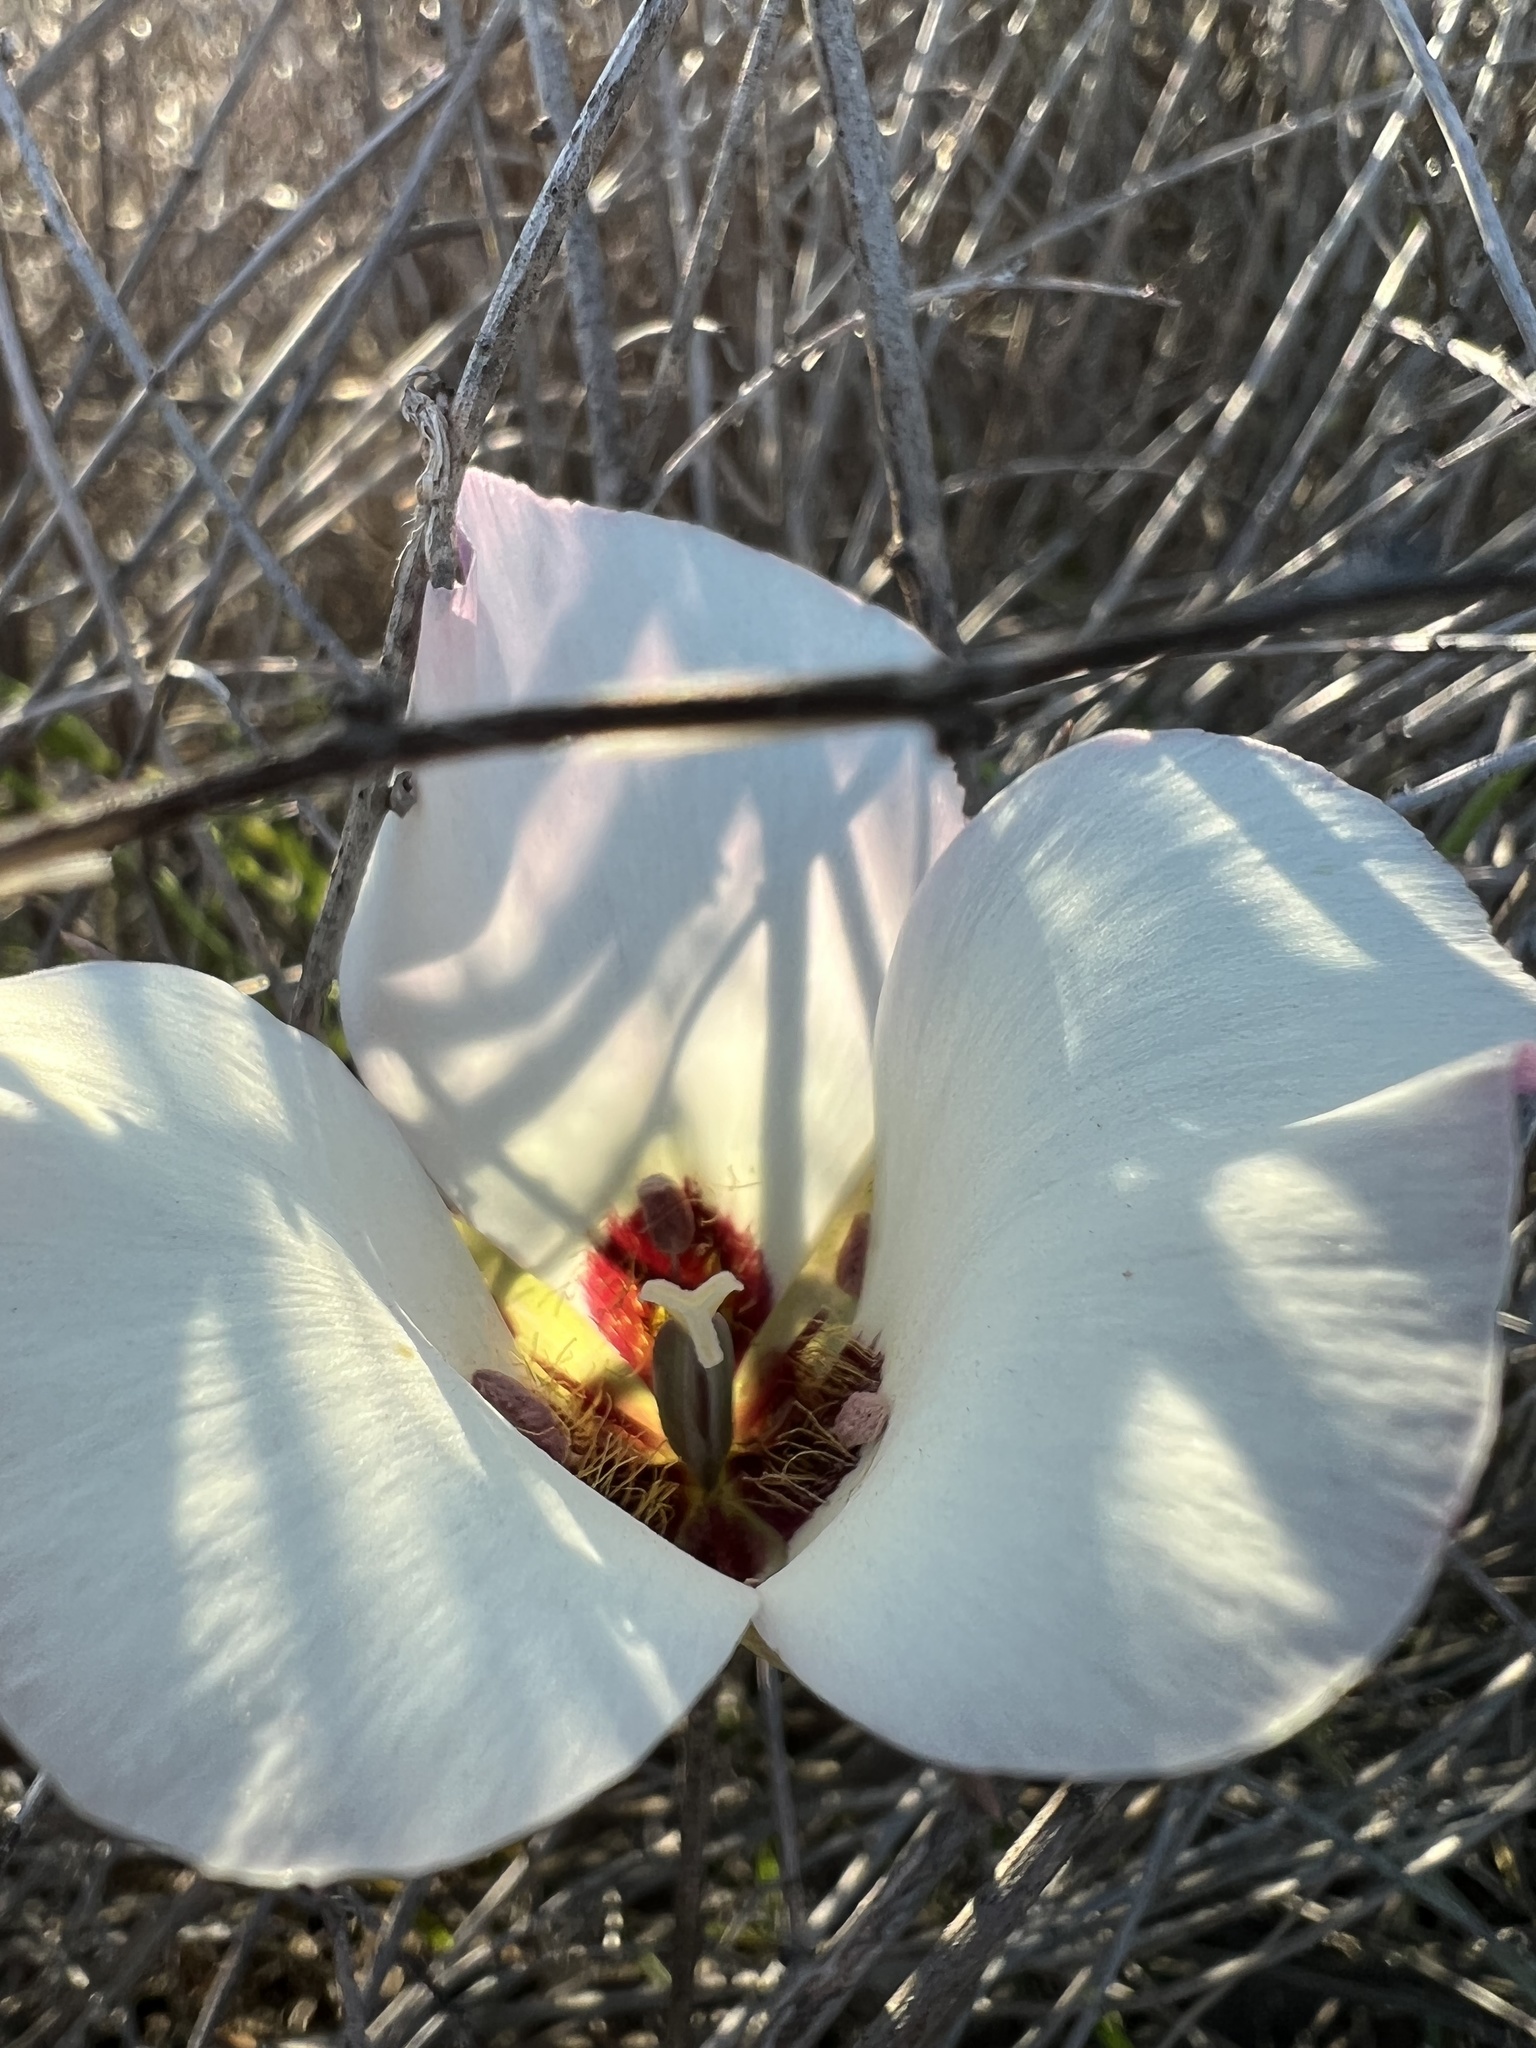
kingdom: Plantae
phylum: Tracheophyta
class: Liliopsida
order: Liliales
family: Liliaceae
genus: Calochortus
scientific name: Calochortus catalinae
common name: Catalina mariposa-lily
